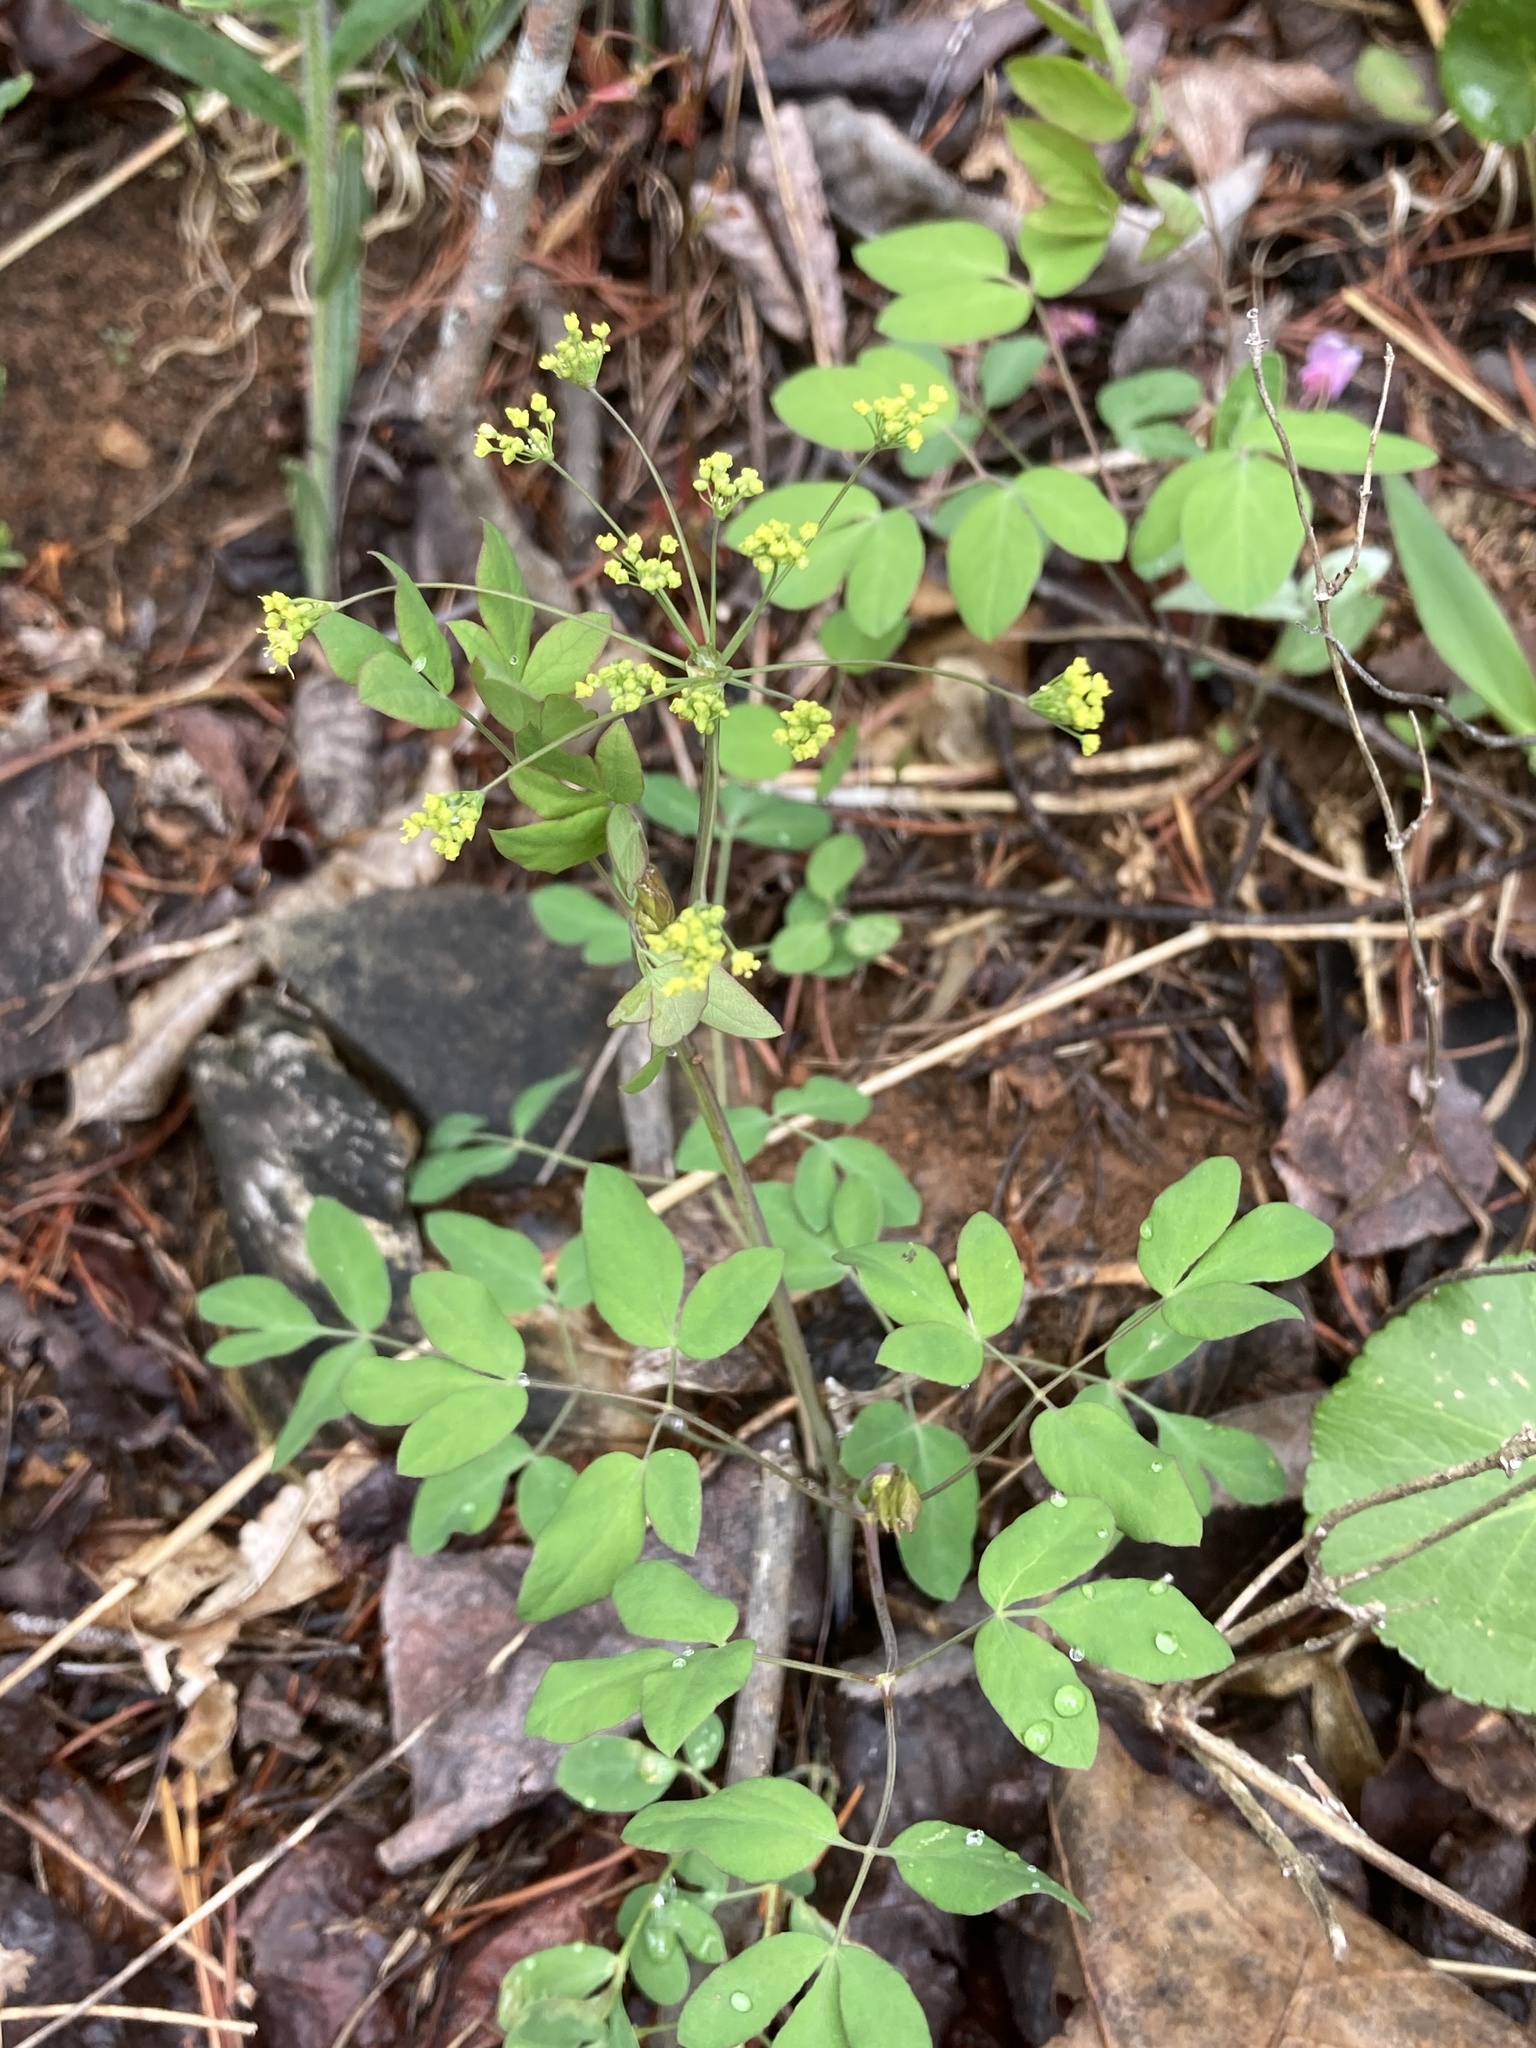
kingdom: Plantae
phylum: Tracheophyta
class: Magnoliopsida
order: Apiales
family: Apiaceae
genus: Taenidia
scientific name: Taenidia integerrima
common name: Golden alexander
